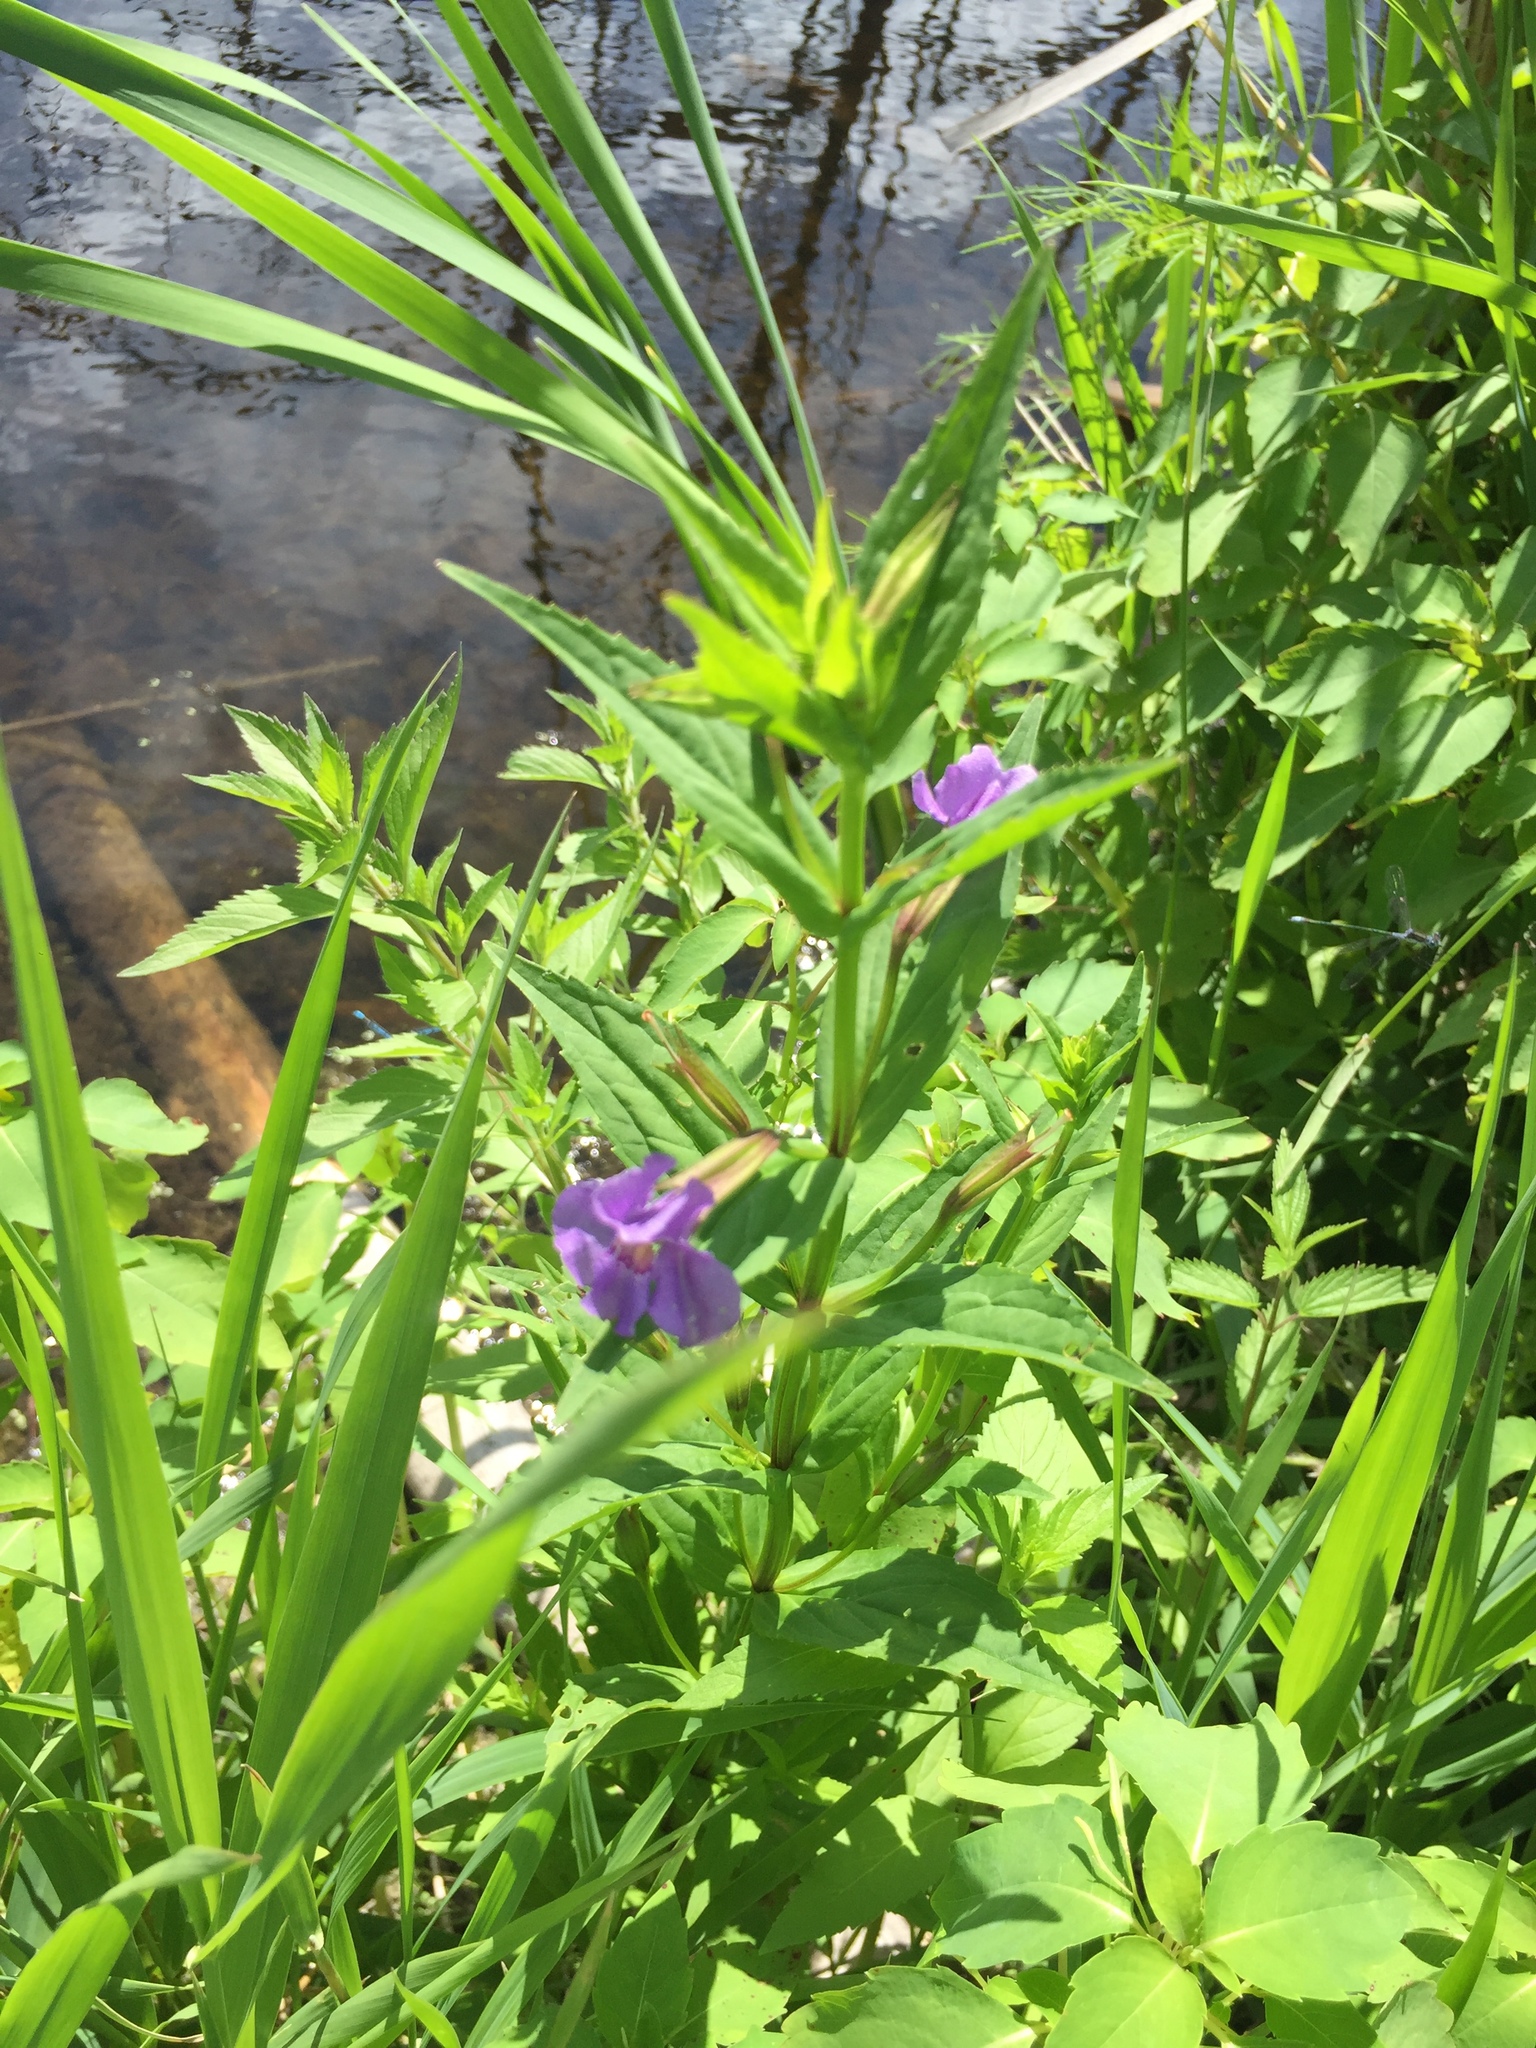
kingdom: Plantae
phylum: Tracheophyta
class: Magnoliopsida
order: Lamiales
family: Phrymaceae
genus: Mimulus
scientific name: Mimulus ringens
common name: Allegheny monkeyflower
